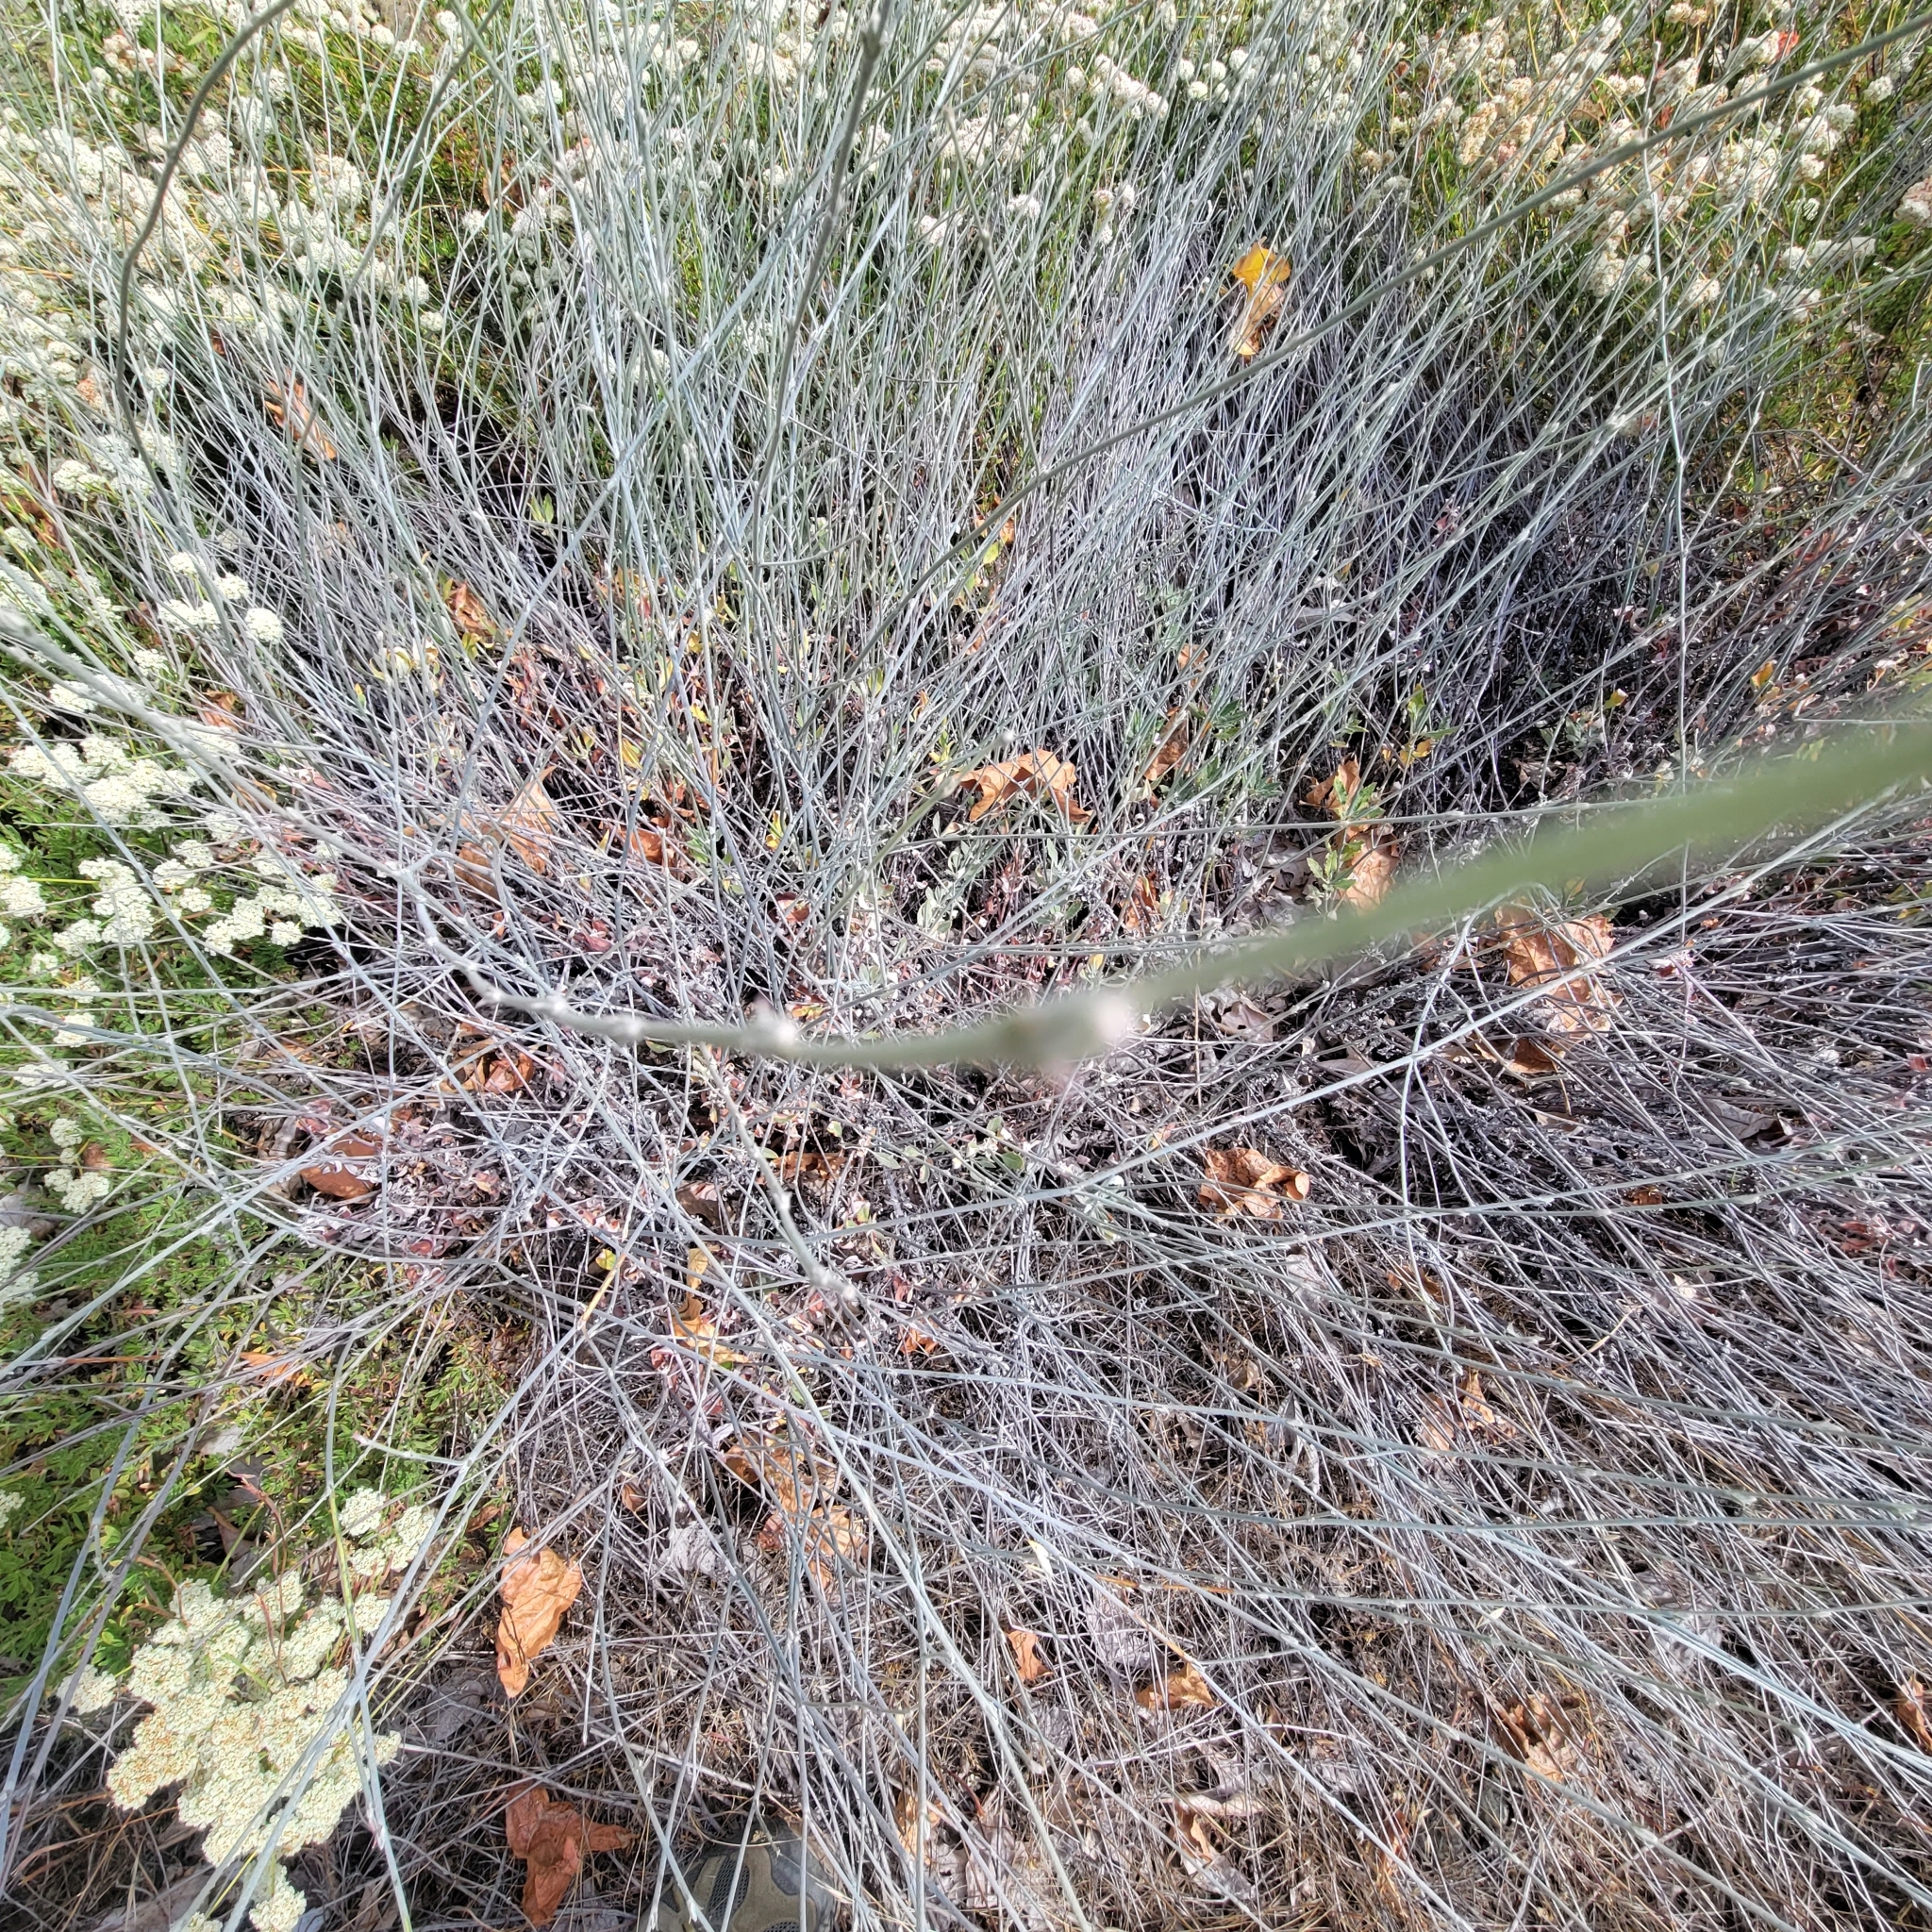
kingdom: Plantae
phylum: Tracheophyta
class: Magnoliopsida
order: Caryophyllales
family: Polygonaceae
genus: Eriogonum
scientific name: Eriogonum elongatum
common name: Long-stem wild buckwheat
